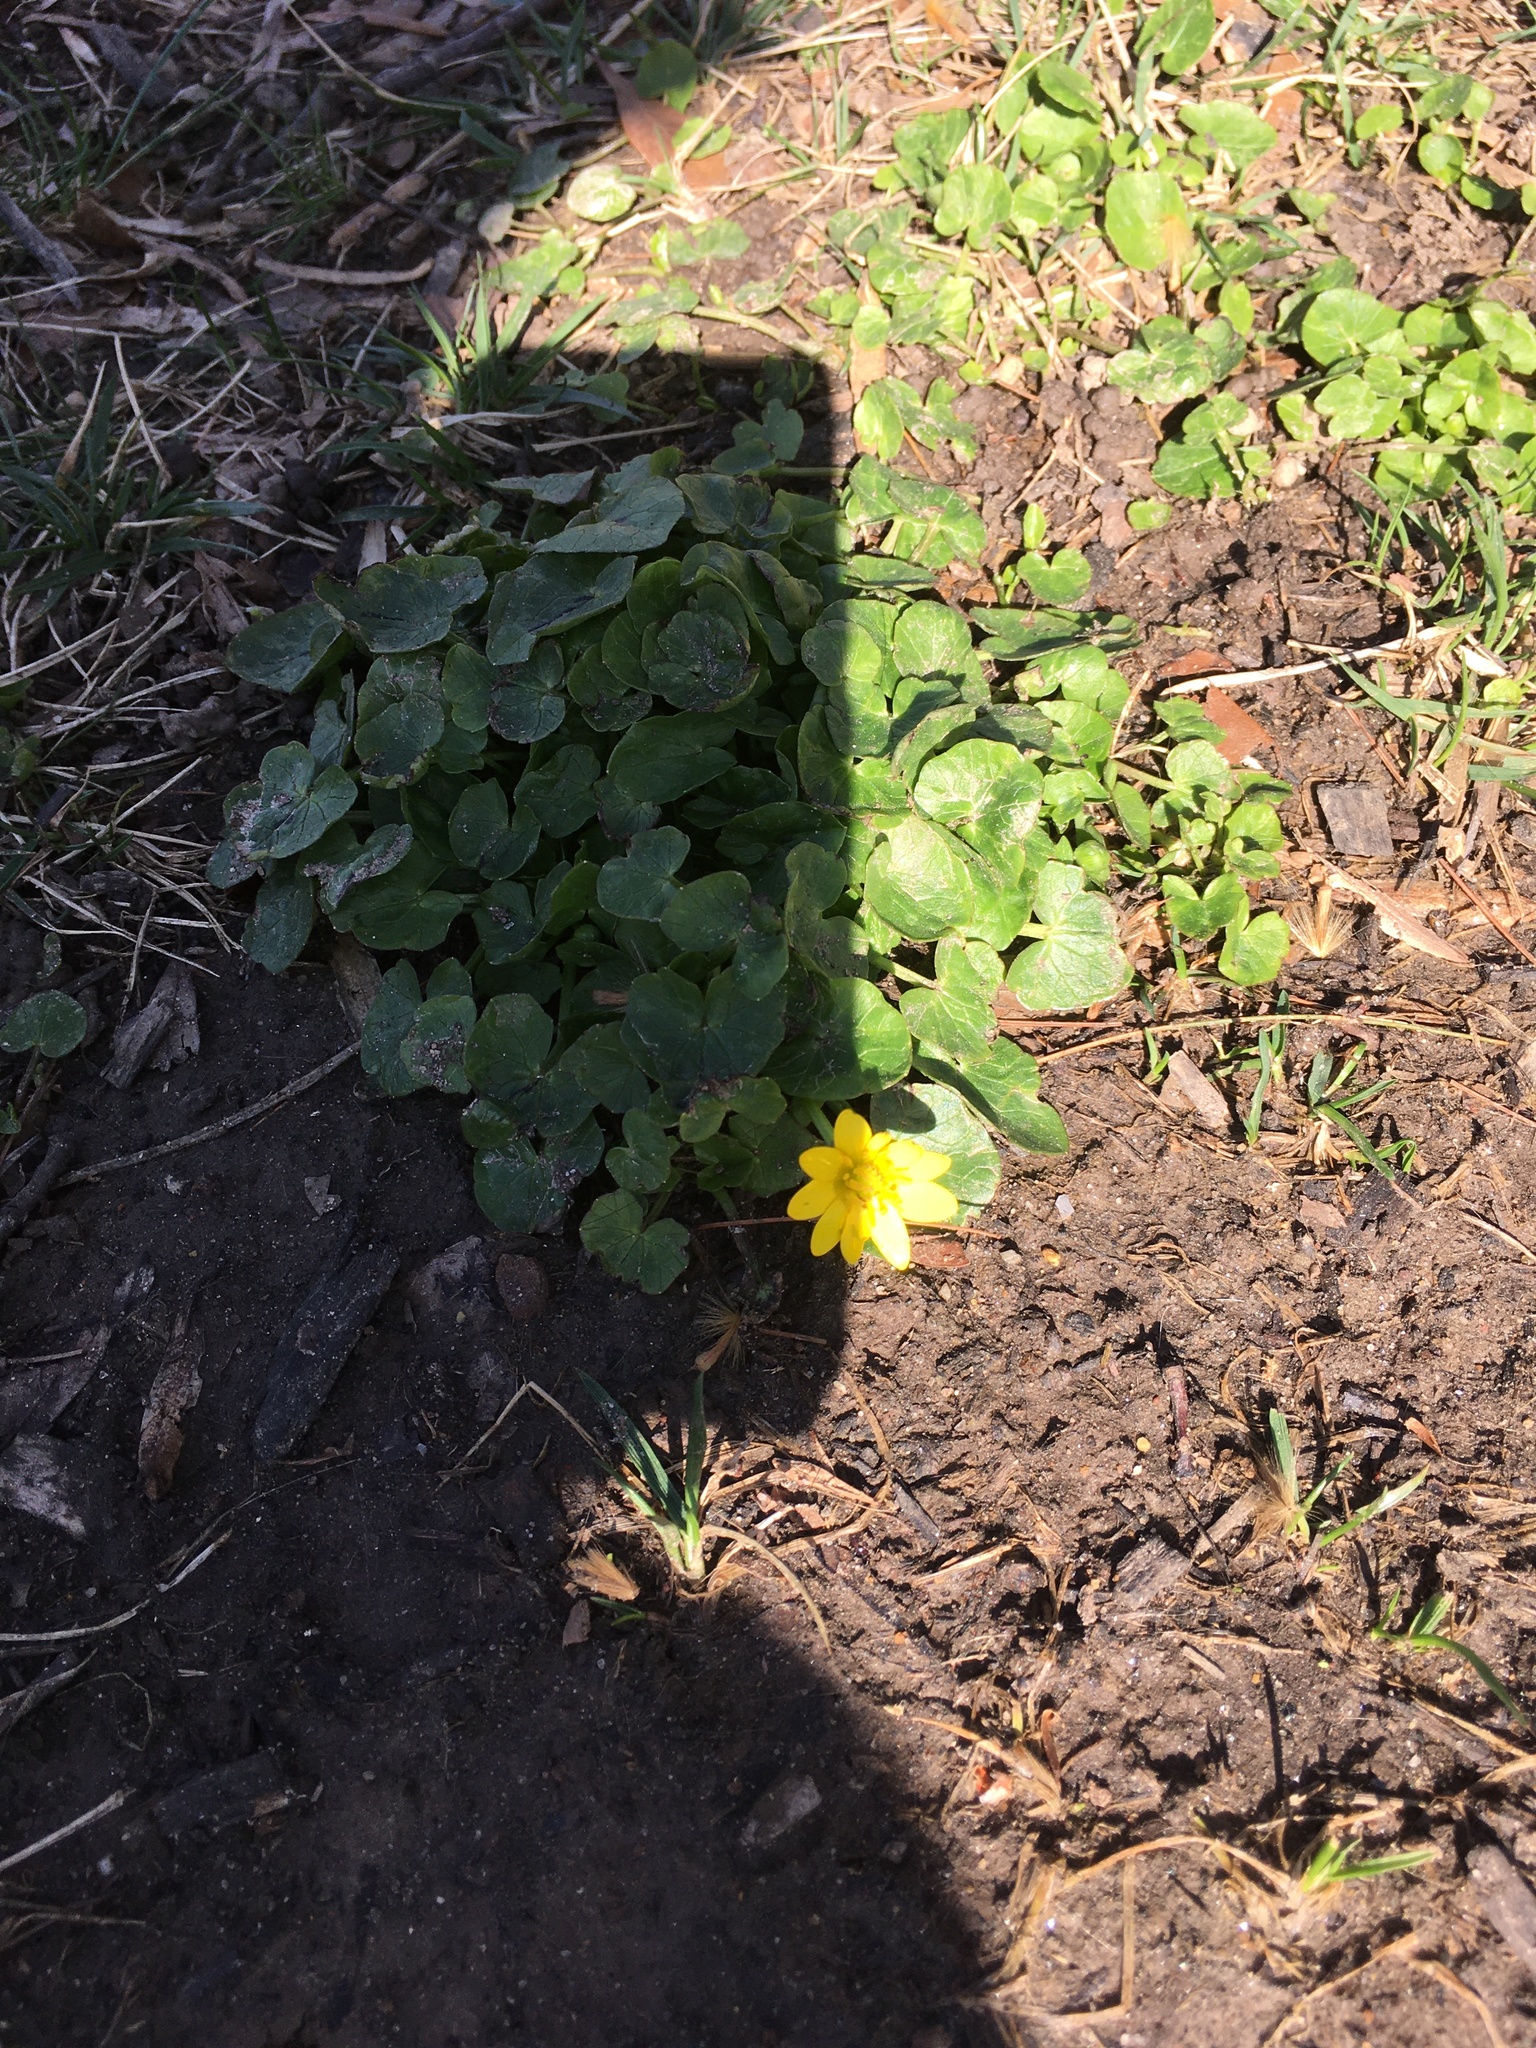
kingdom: Plantae
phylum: Tracheophyta
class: Magnoliopsida
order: Ranunculales
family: Ranunculaceae
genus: Ficaria
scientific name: Ficaria verna
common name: Lesser celandine
